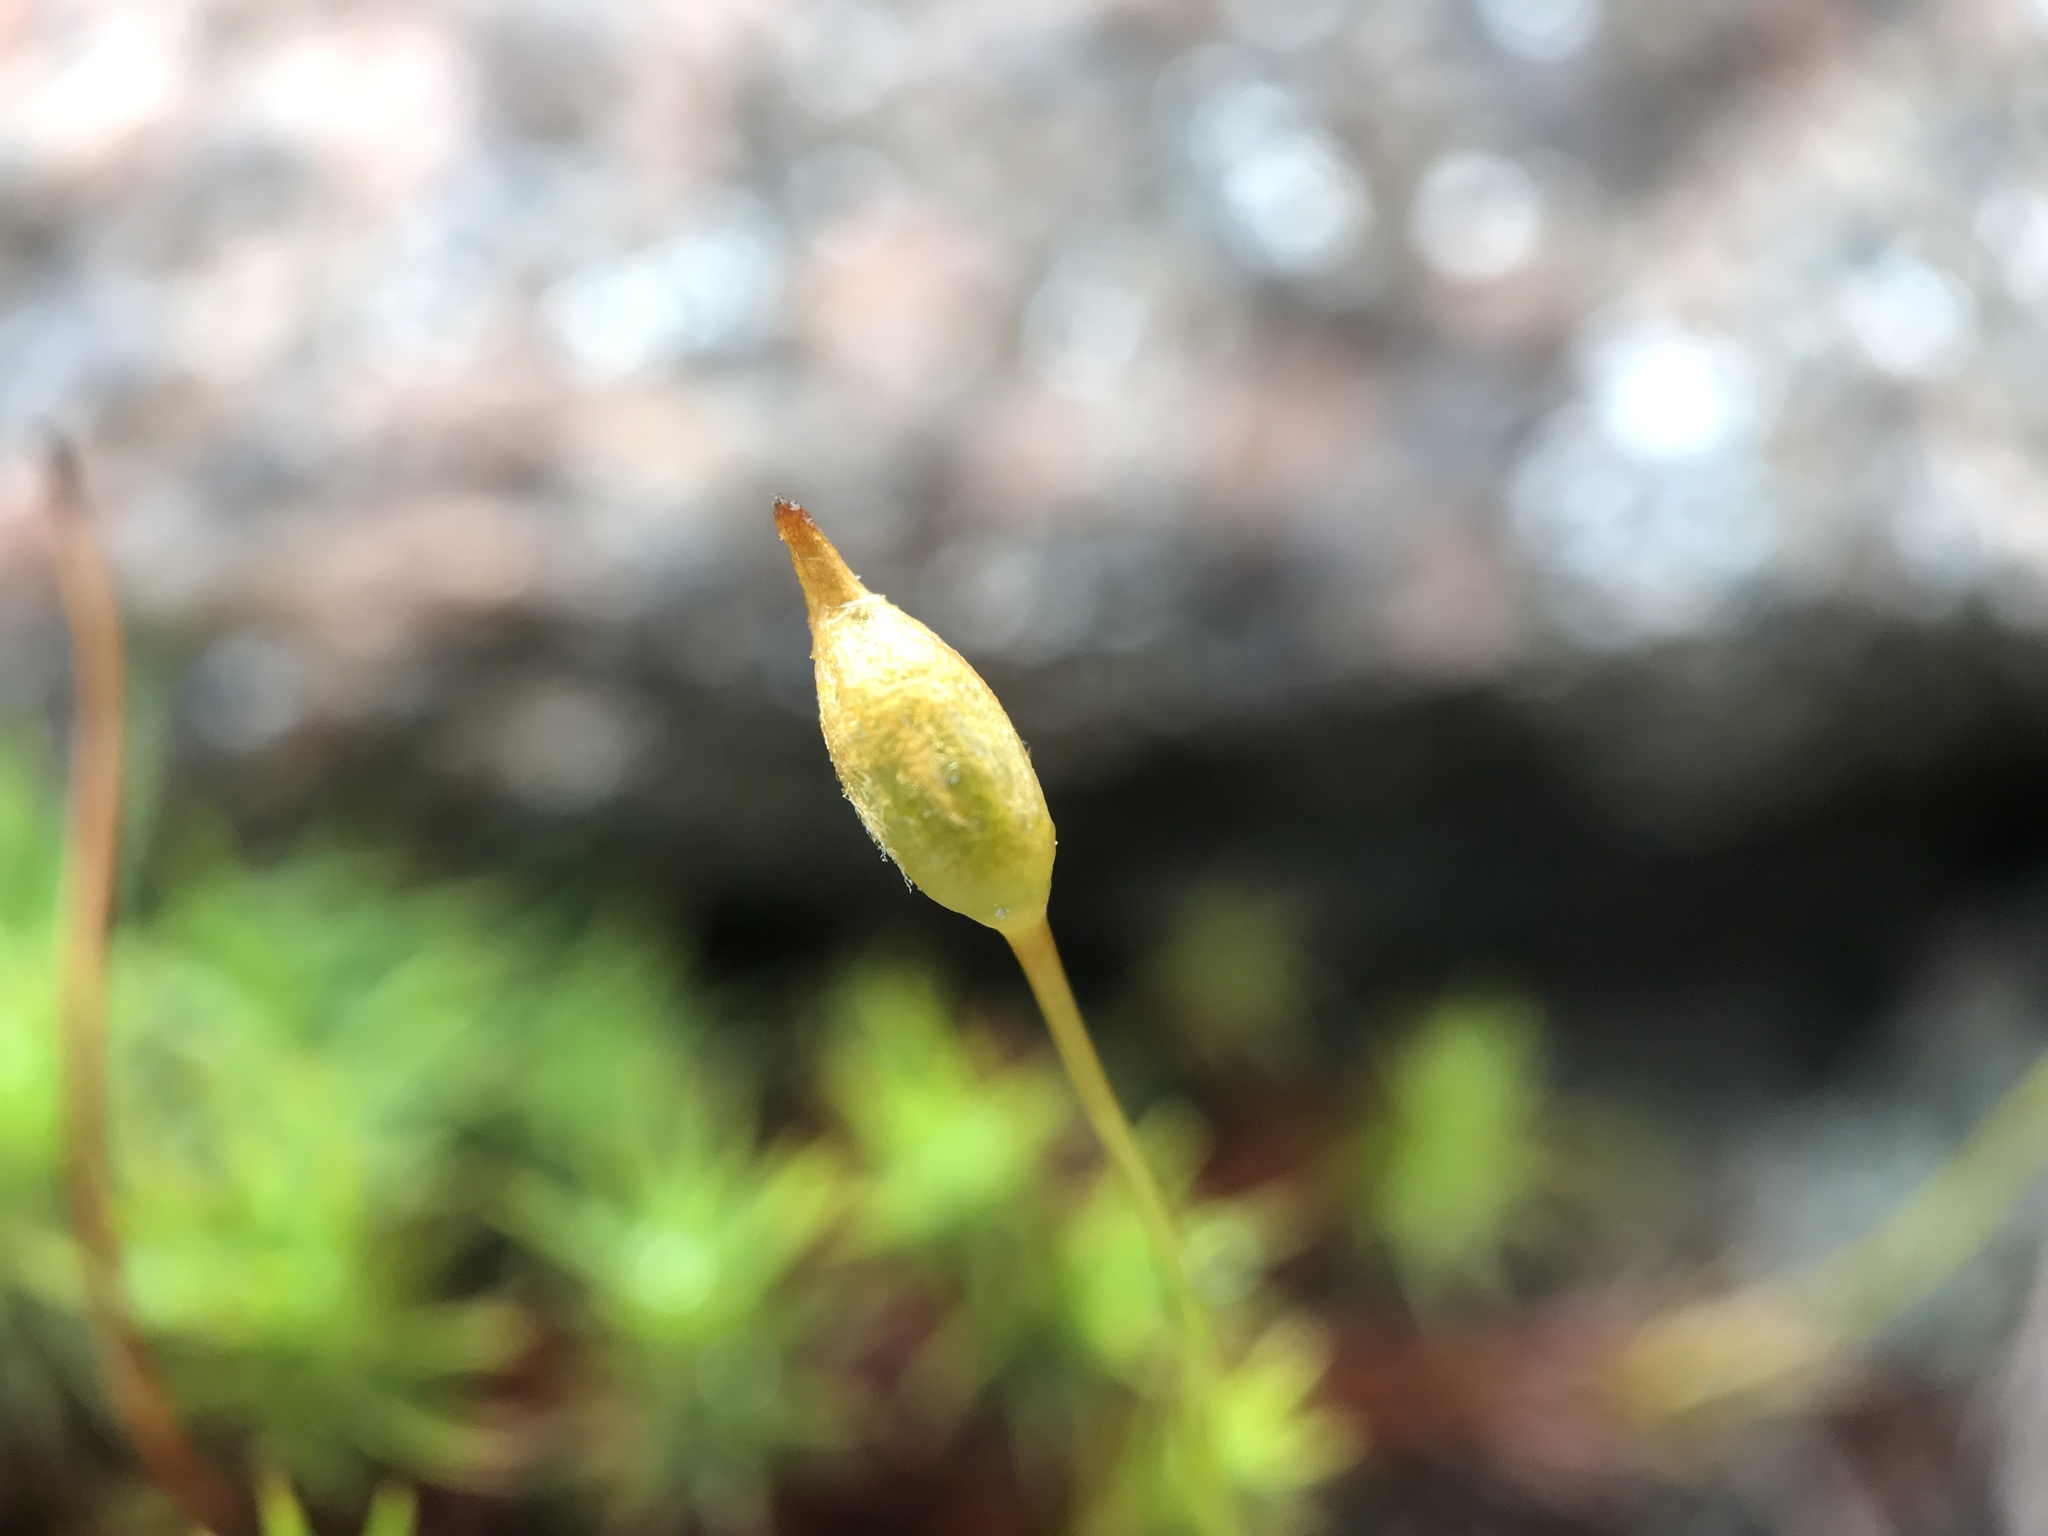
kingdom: Plantae
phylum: Bryophyta
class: Polytrichopsida
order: Polytrichales
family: Polytrichaceae
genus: Polytrichastrum
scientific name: Polytrichastrum alpinum
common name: Alpine haircap
